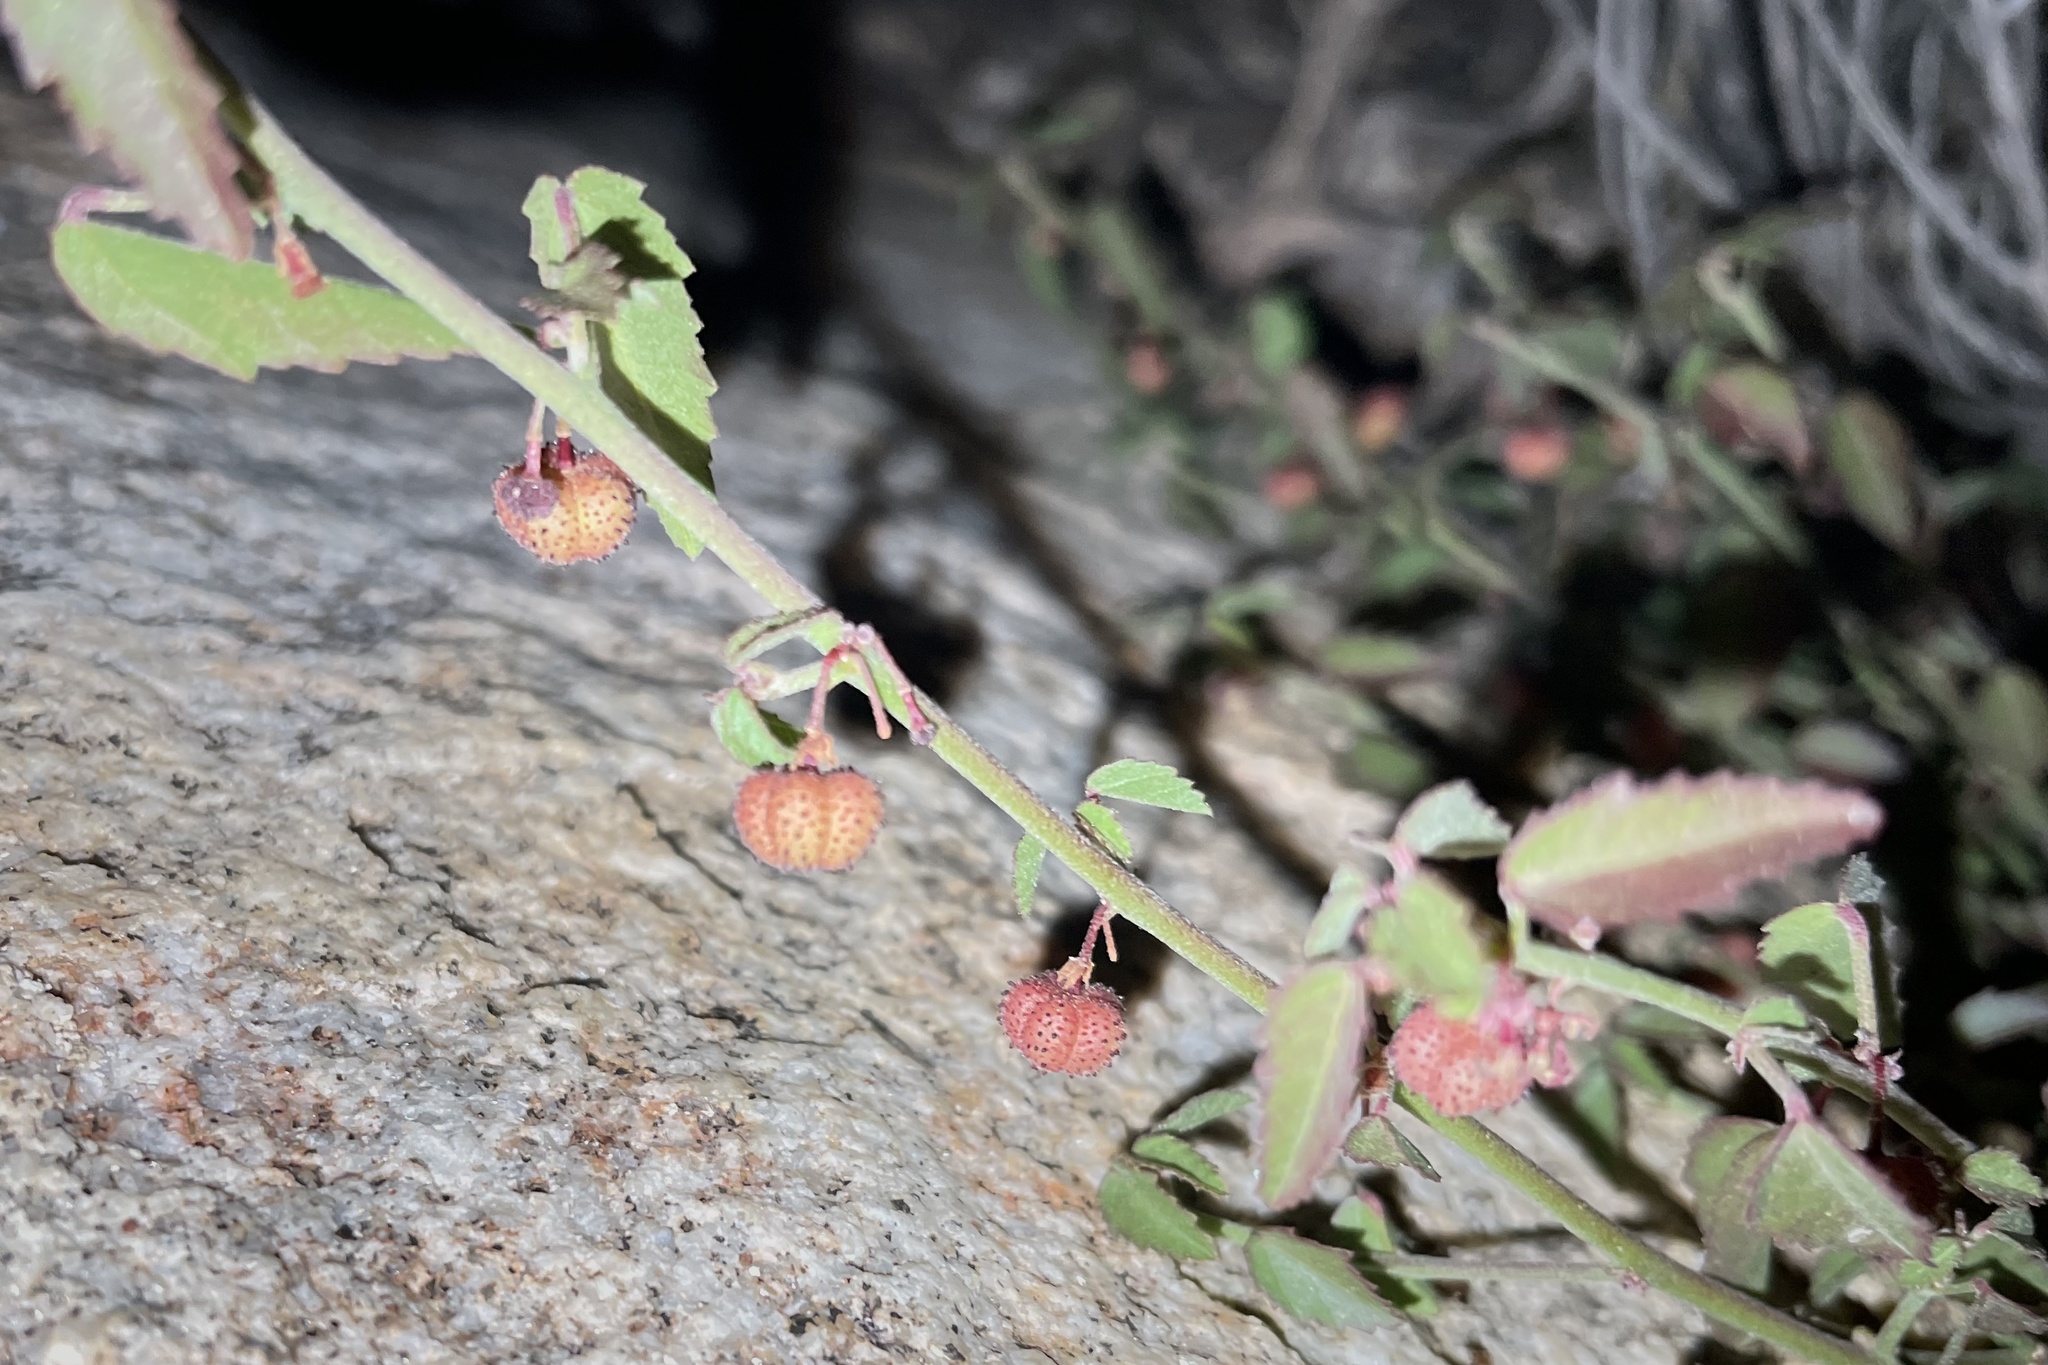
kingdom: Plantae
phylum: Tracheophyta
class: Magnoliopsida
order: Malvales
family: Malvaceae
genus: Ayenia
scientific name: Ayenia compacta
